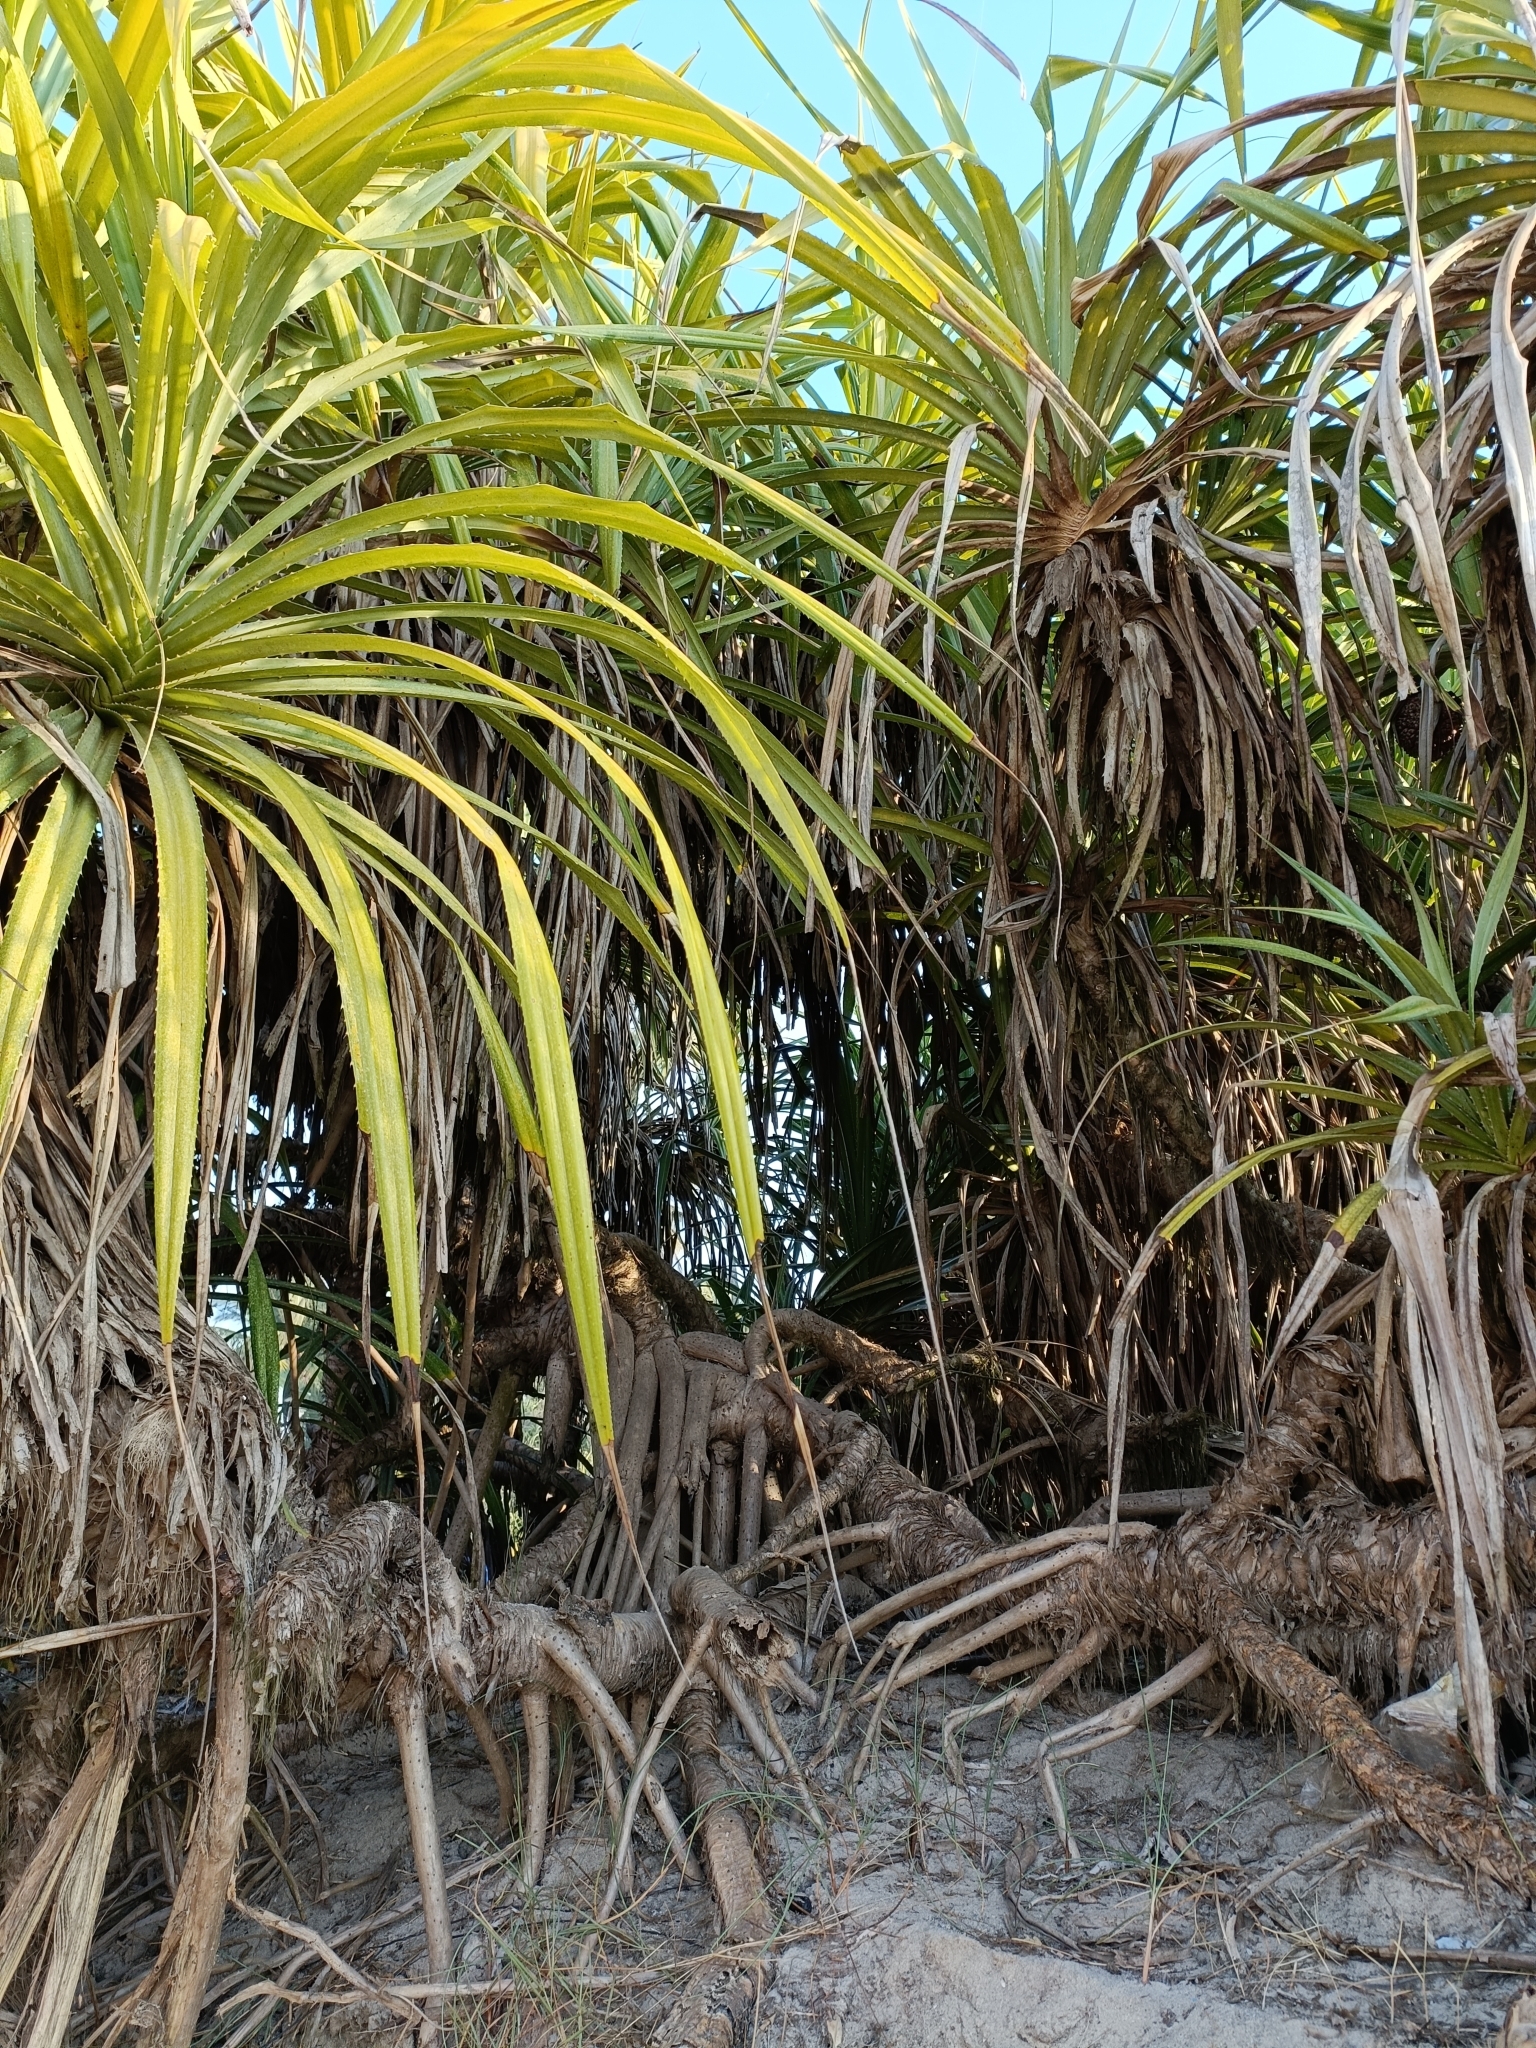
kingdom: Plantae
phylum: Tracheophyta
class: Liliopsida
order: Pandanales
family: Pandanaceae
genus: Pandanus
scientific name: Pandanus odorifer
